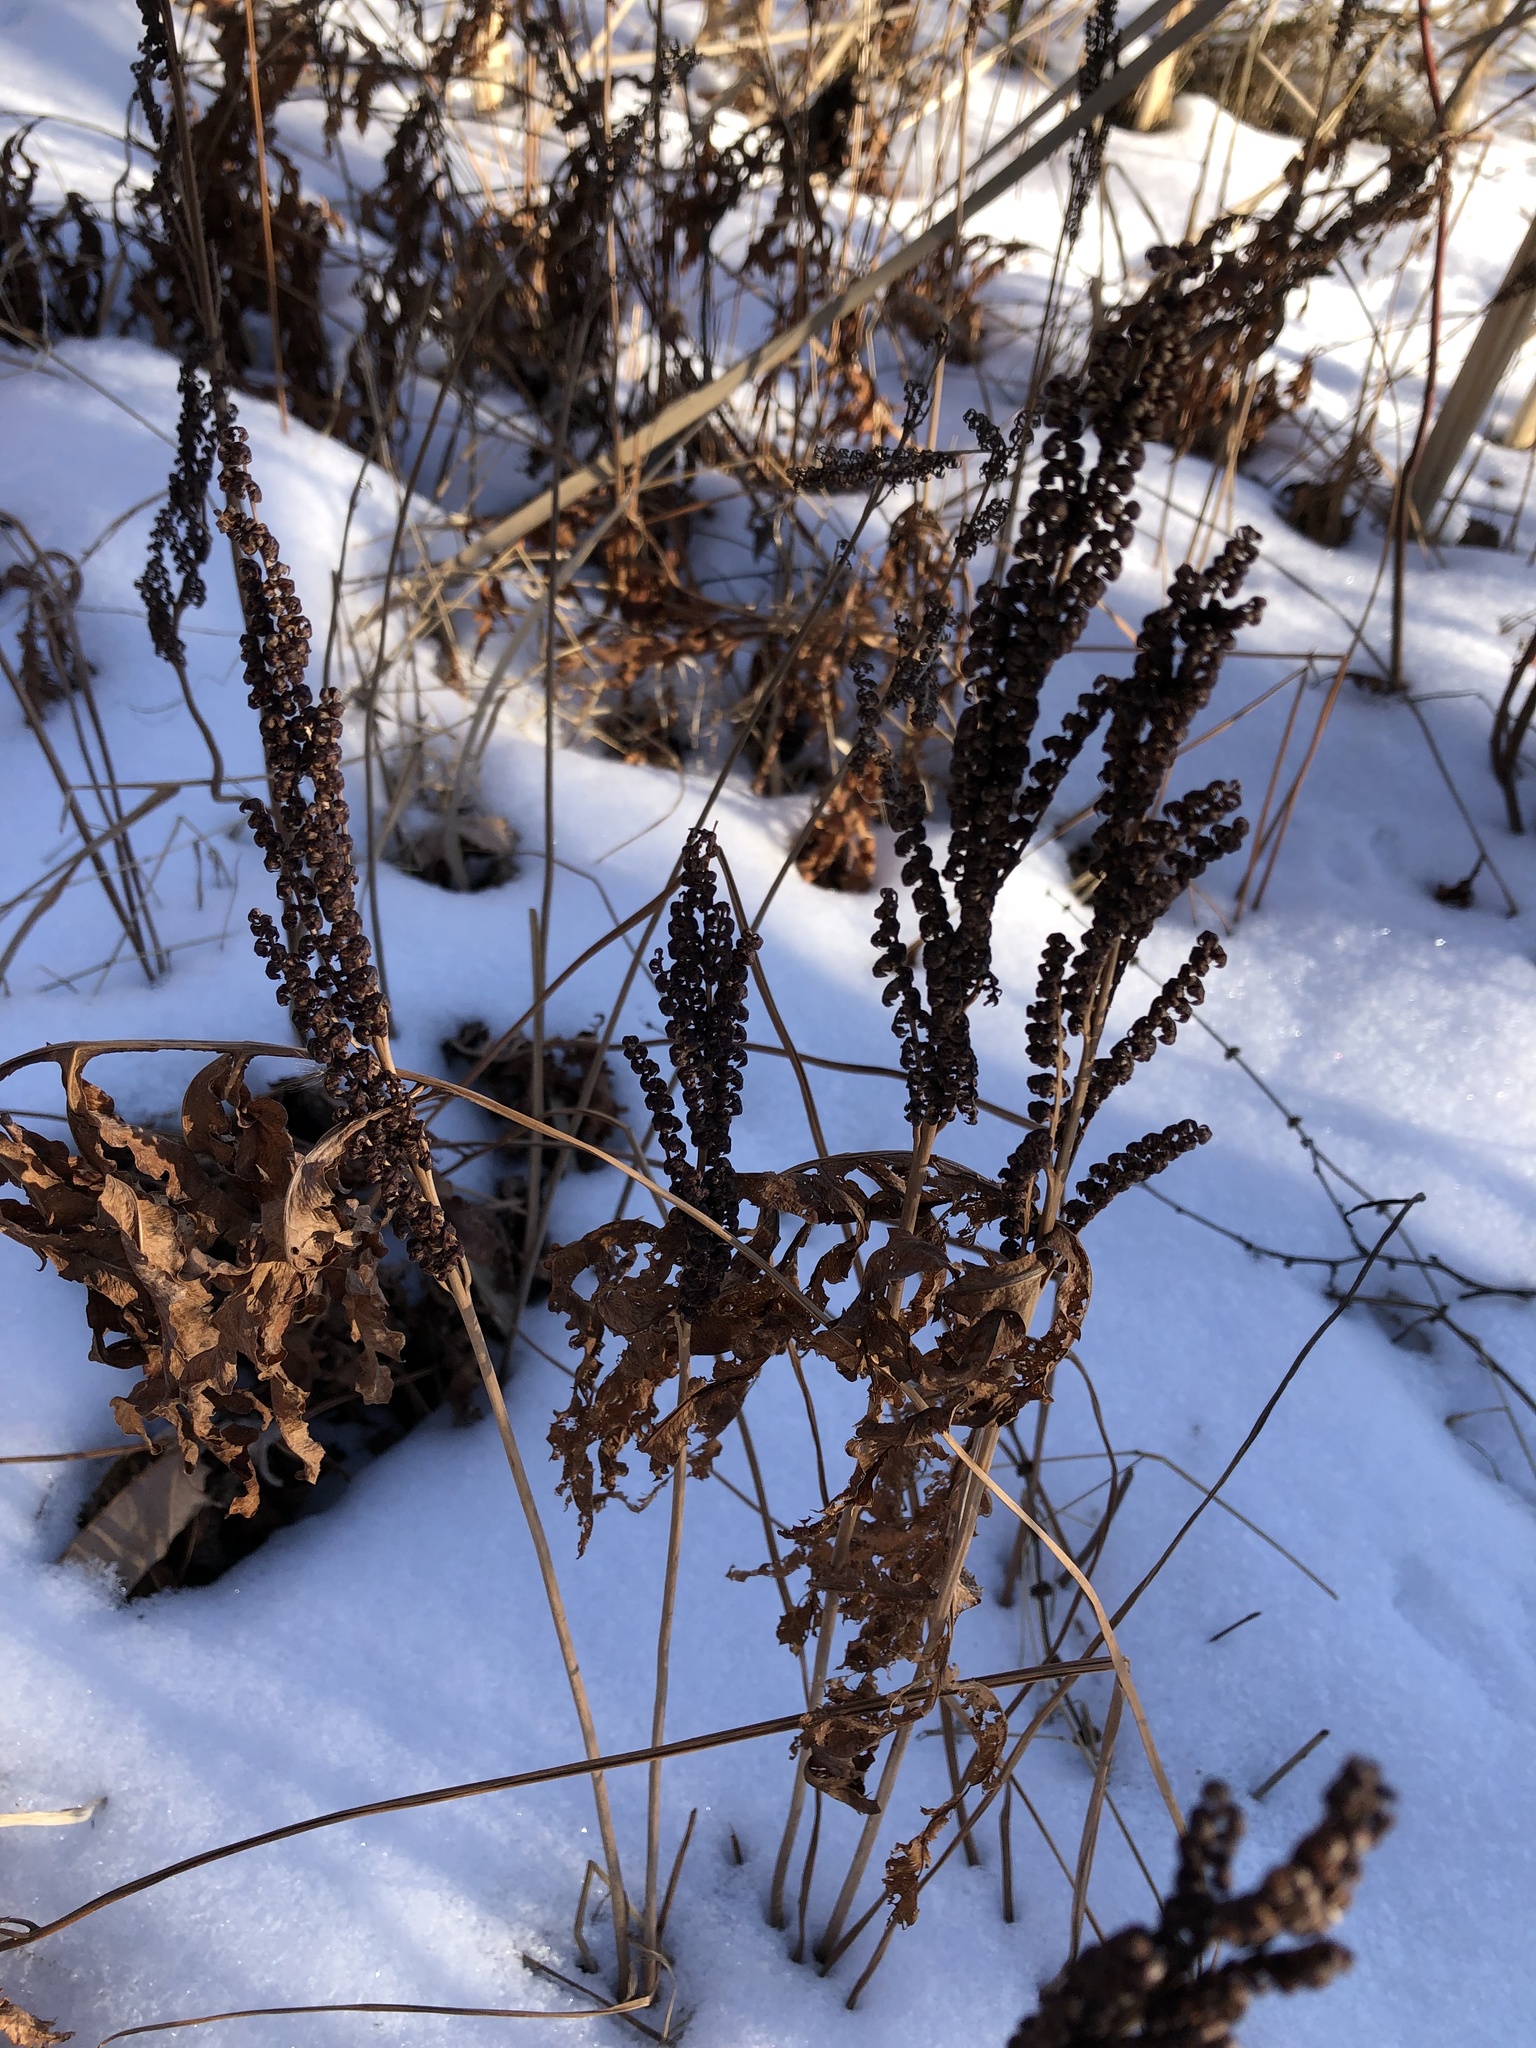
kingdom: Plantae
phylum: Tracheophyta
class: Polypodiopsida
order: Polypodiales
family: Onocleaceae
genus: Onoclea
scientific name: Onoclea sensibilis
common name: Sensitive fern
